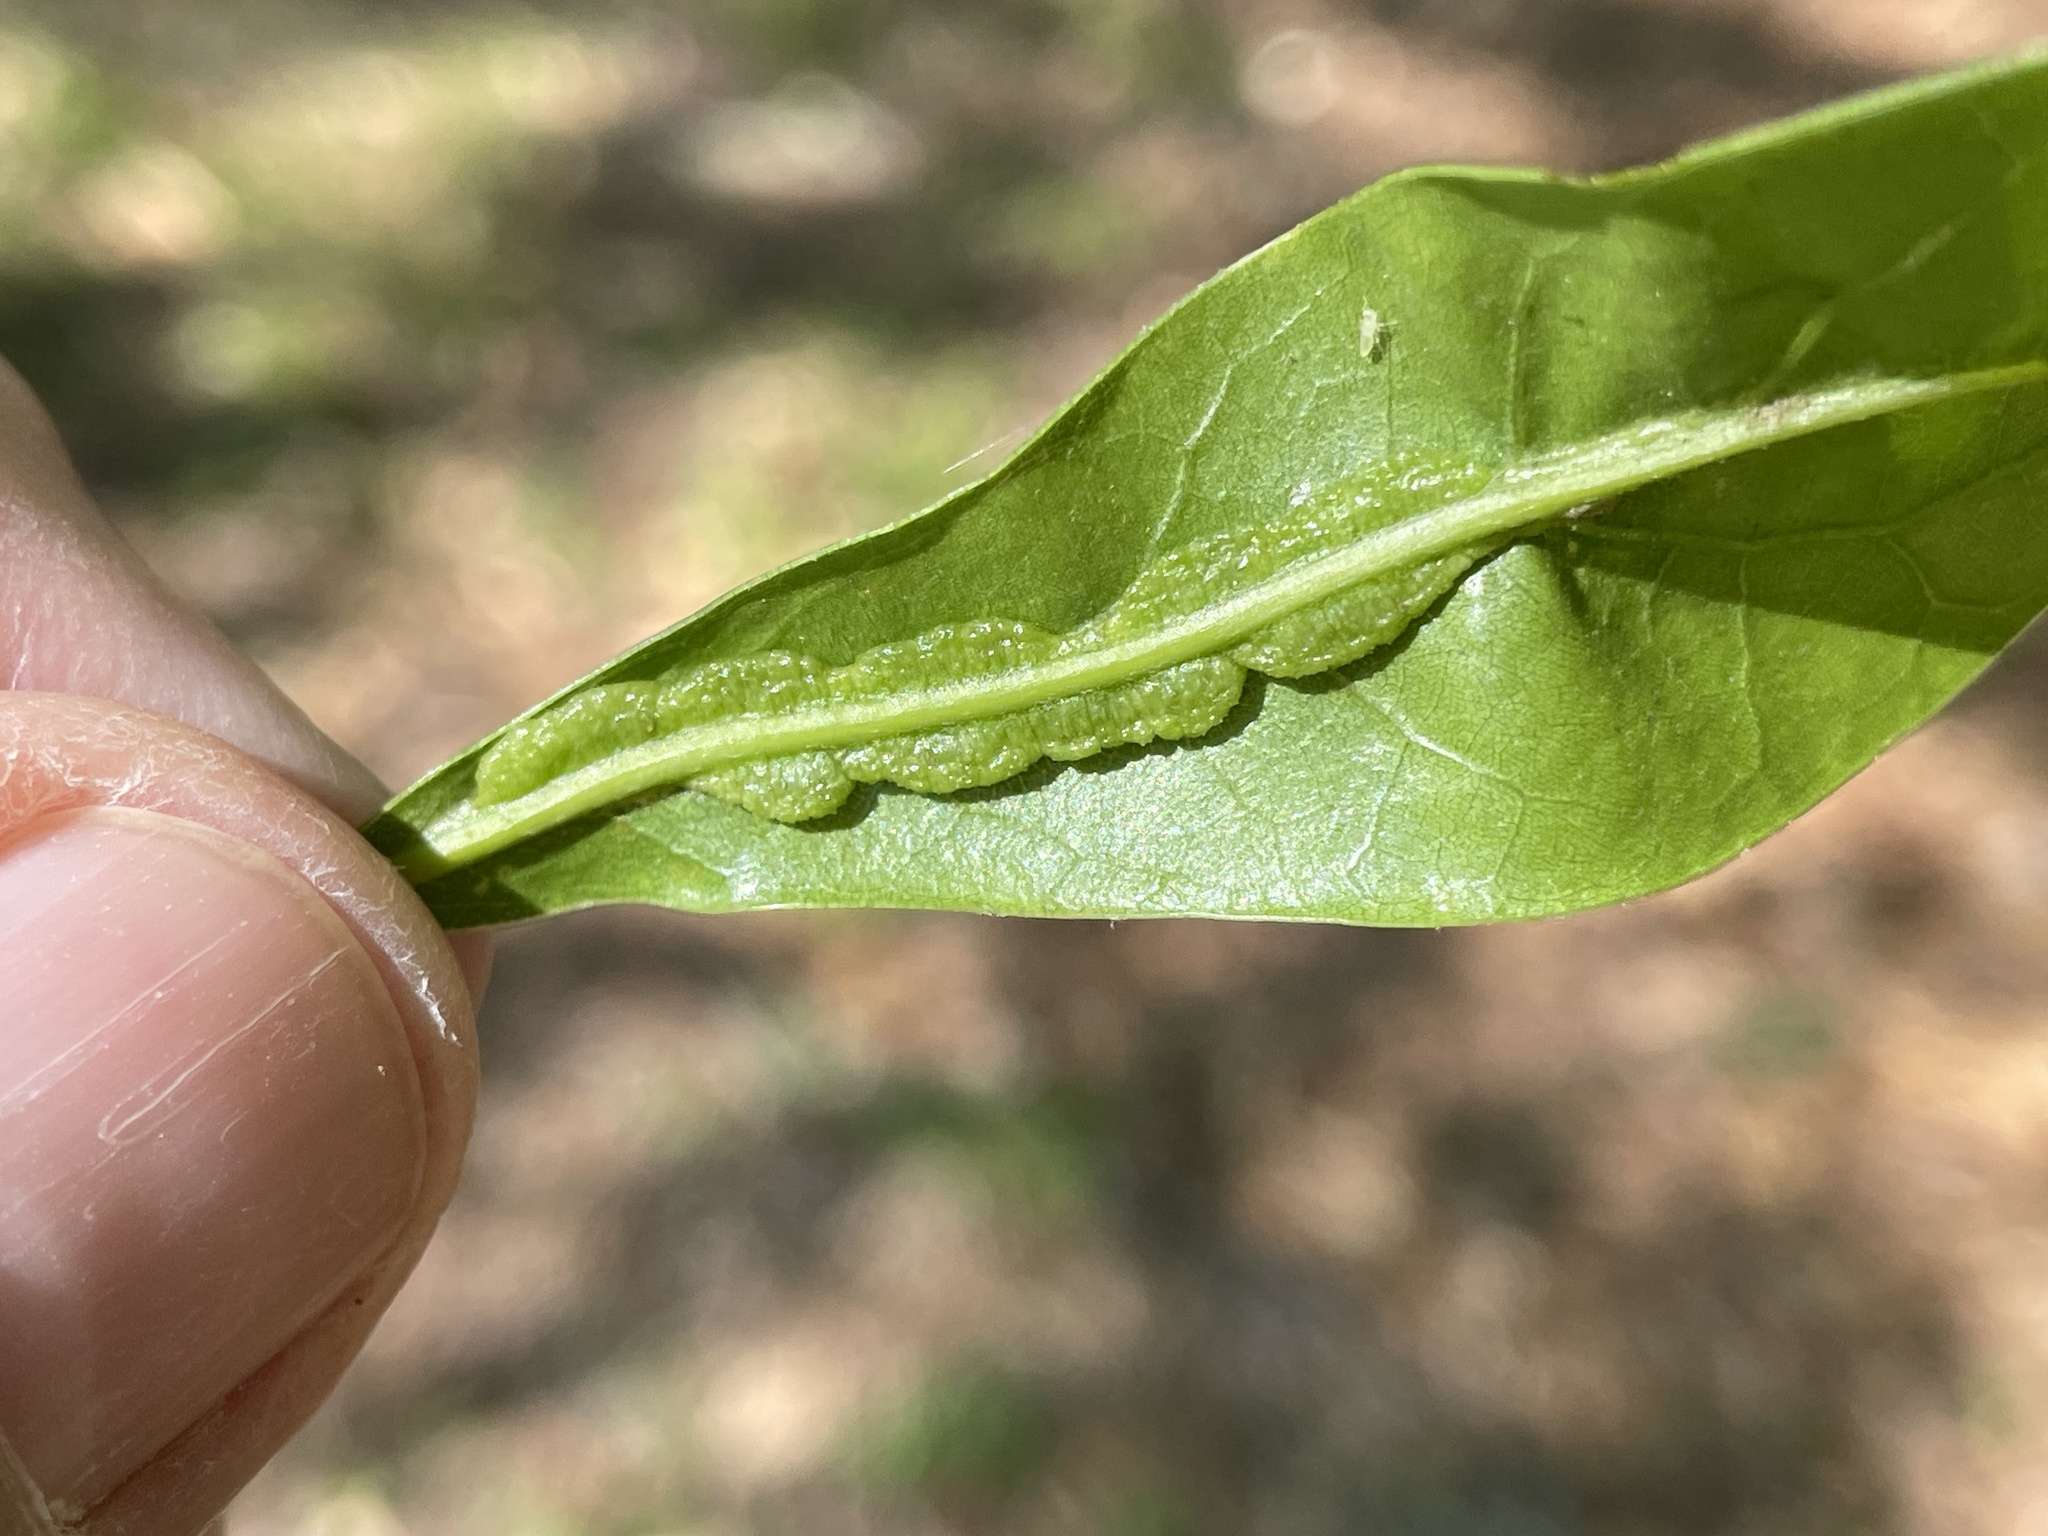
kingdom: Animalia
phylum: Arthropoda
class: Insecta
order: Diptera
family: Cecidomyiidae
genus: Macrodiplosis
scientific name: Macrodiplosis q-orucum
